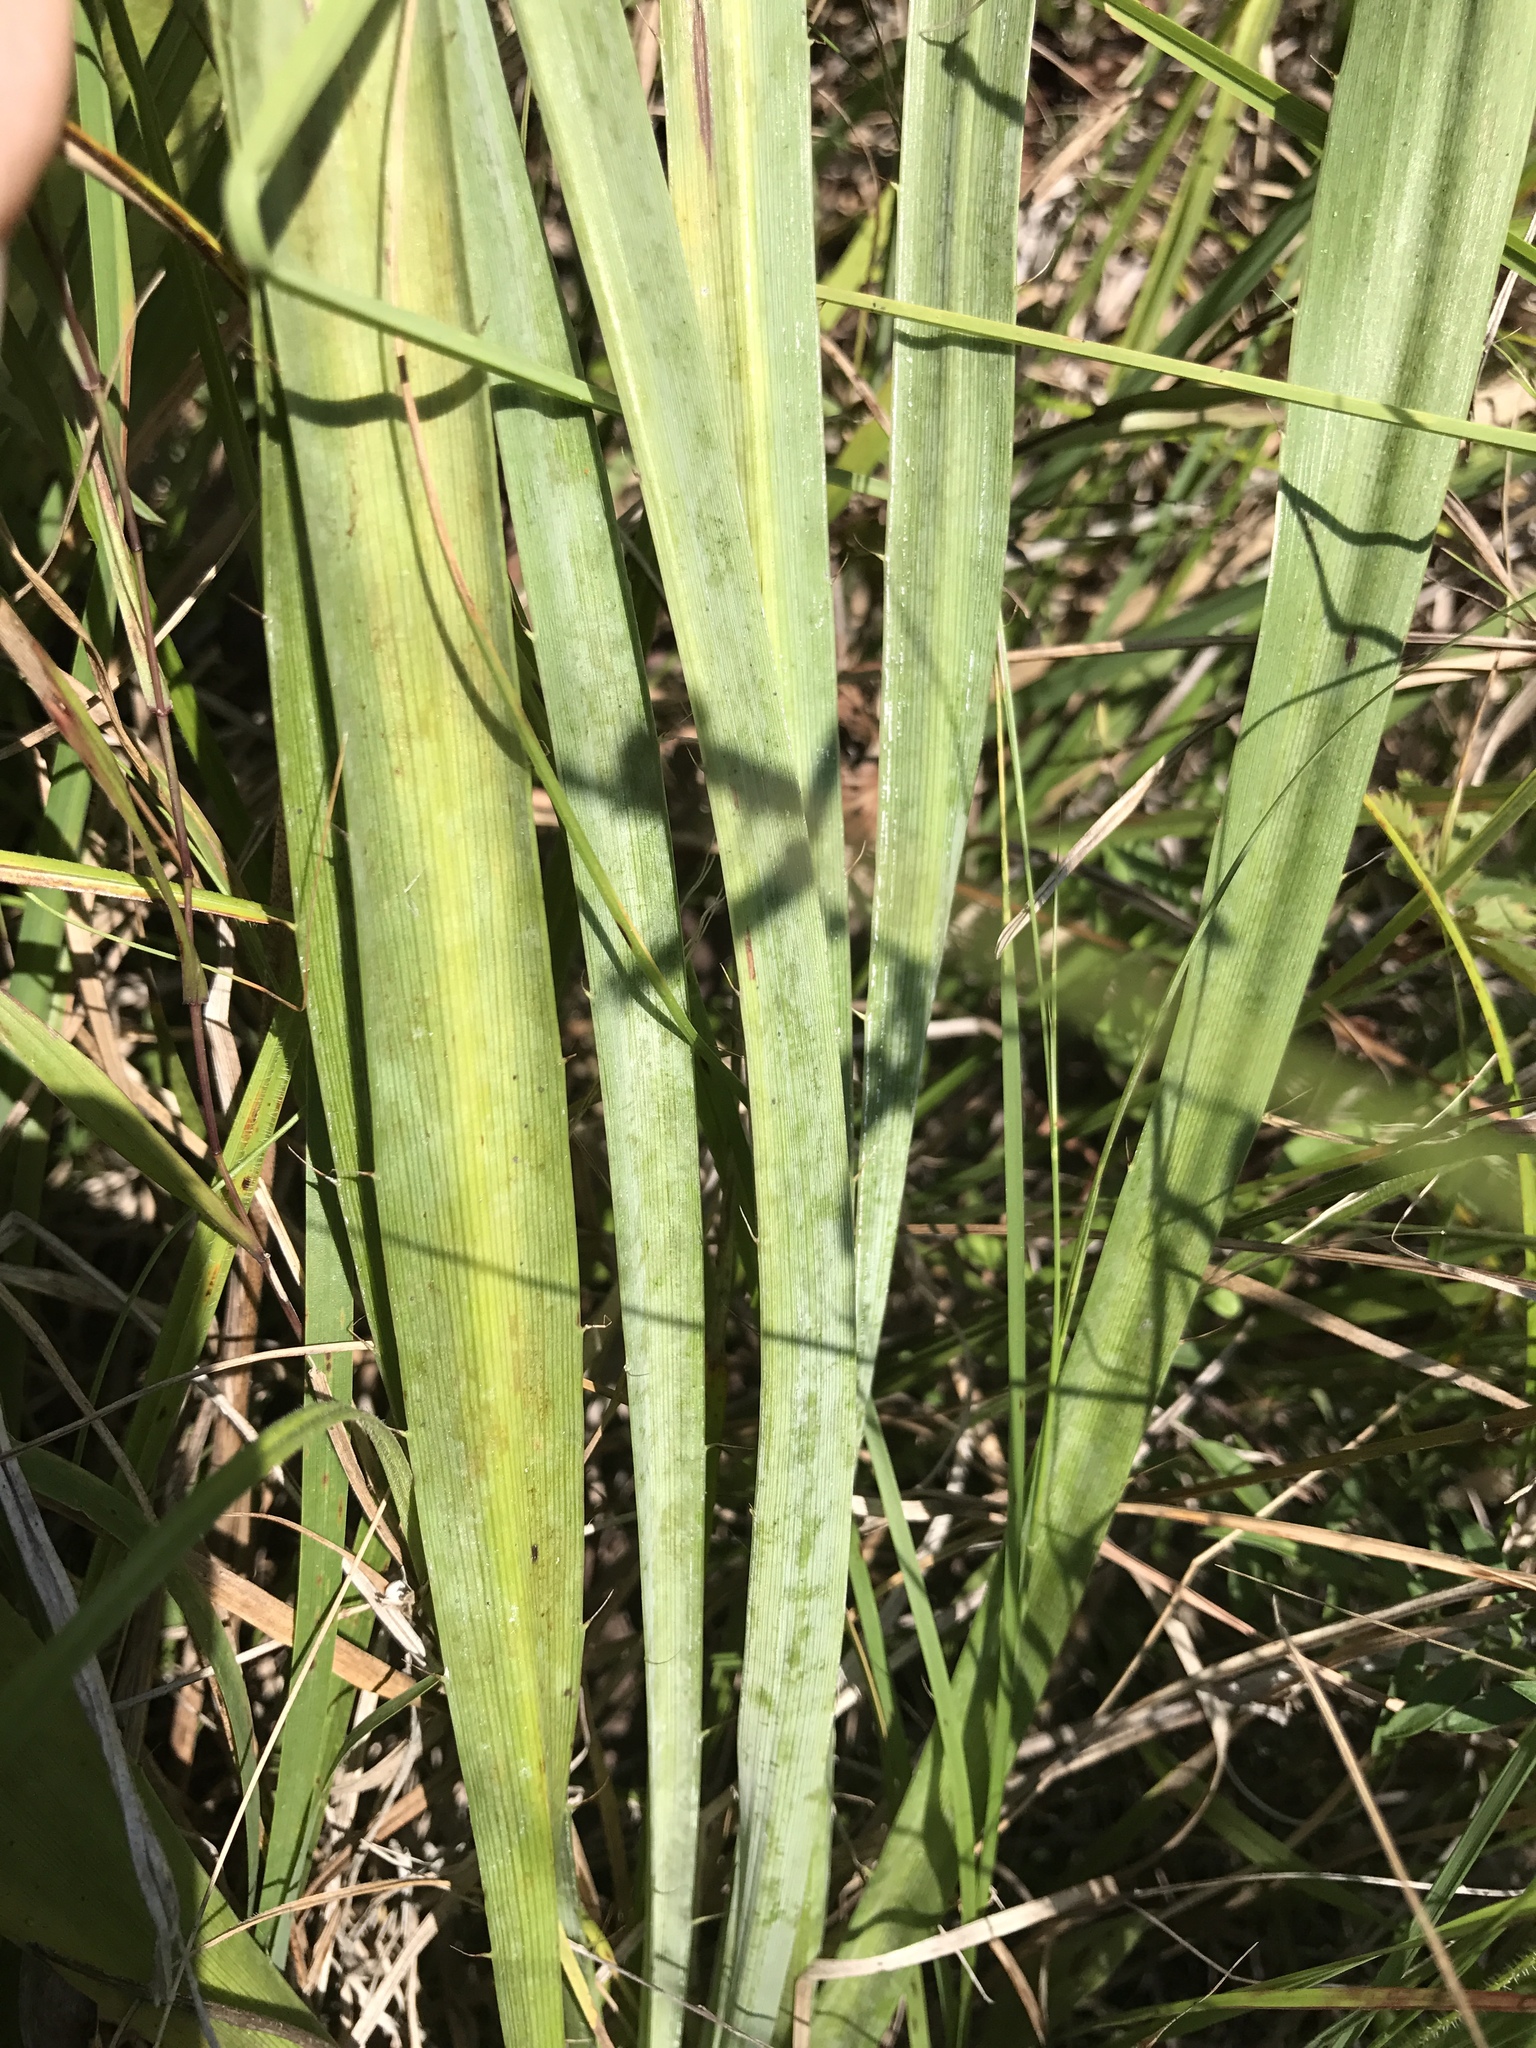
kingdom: Plantae
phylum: Tracheophyta
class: Magnoliopsida
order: Apiales
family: Apiaceae
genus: Eryngium
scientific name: Eryngium yuccifolium
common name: Button eryngo
